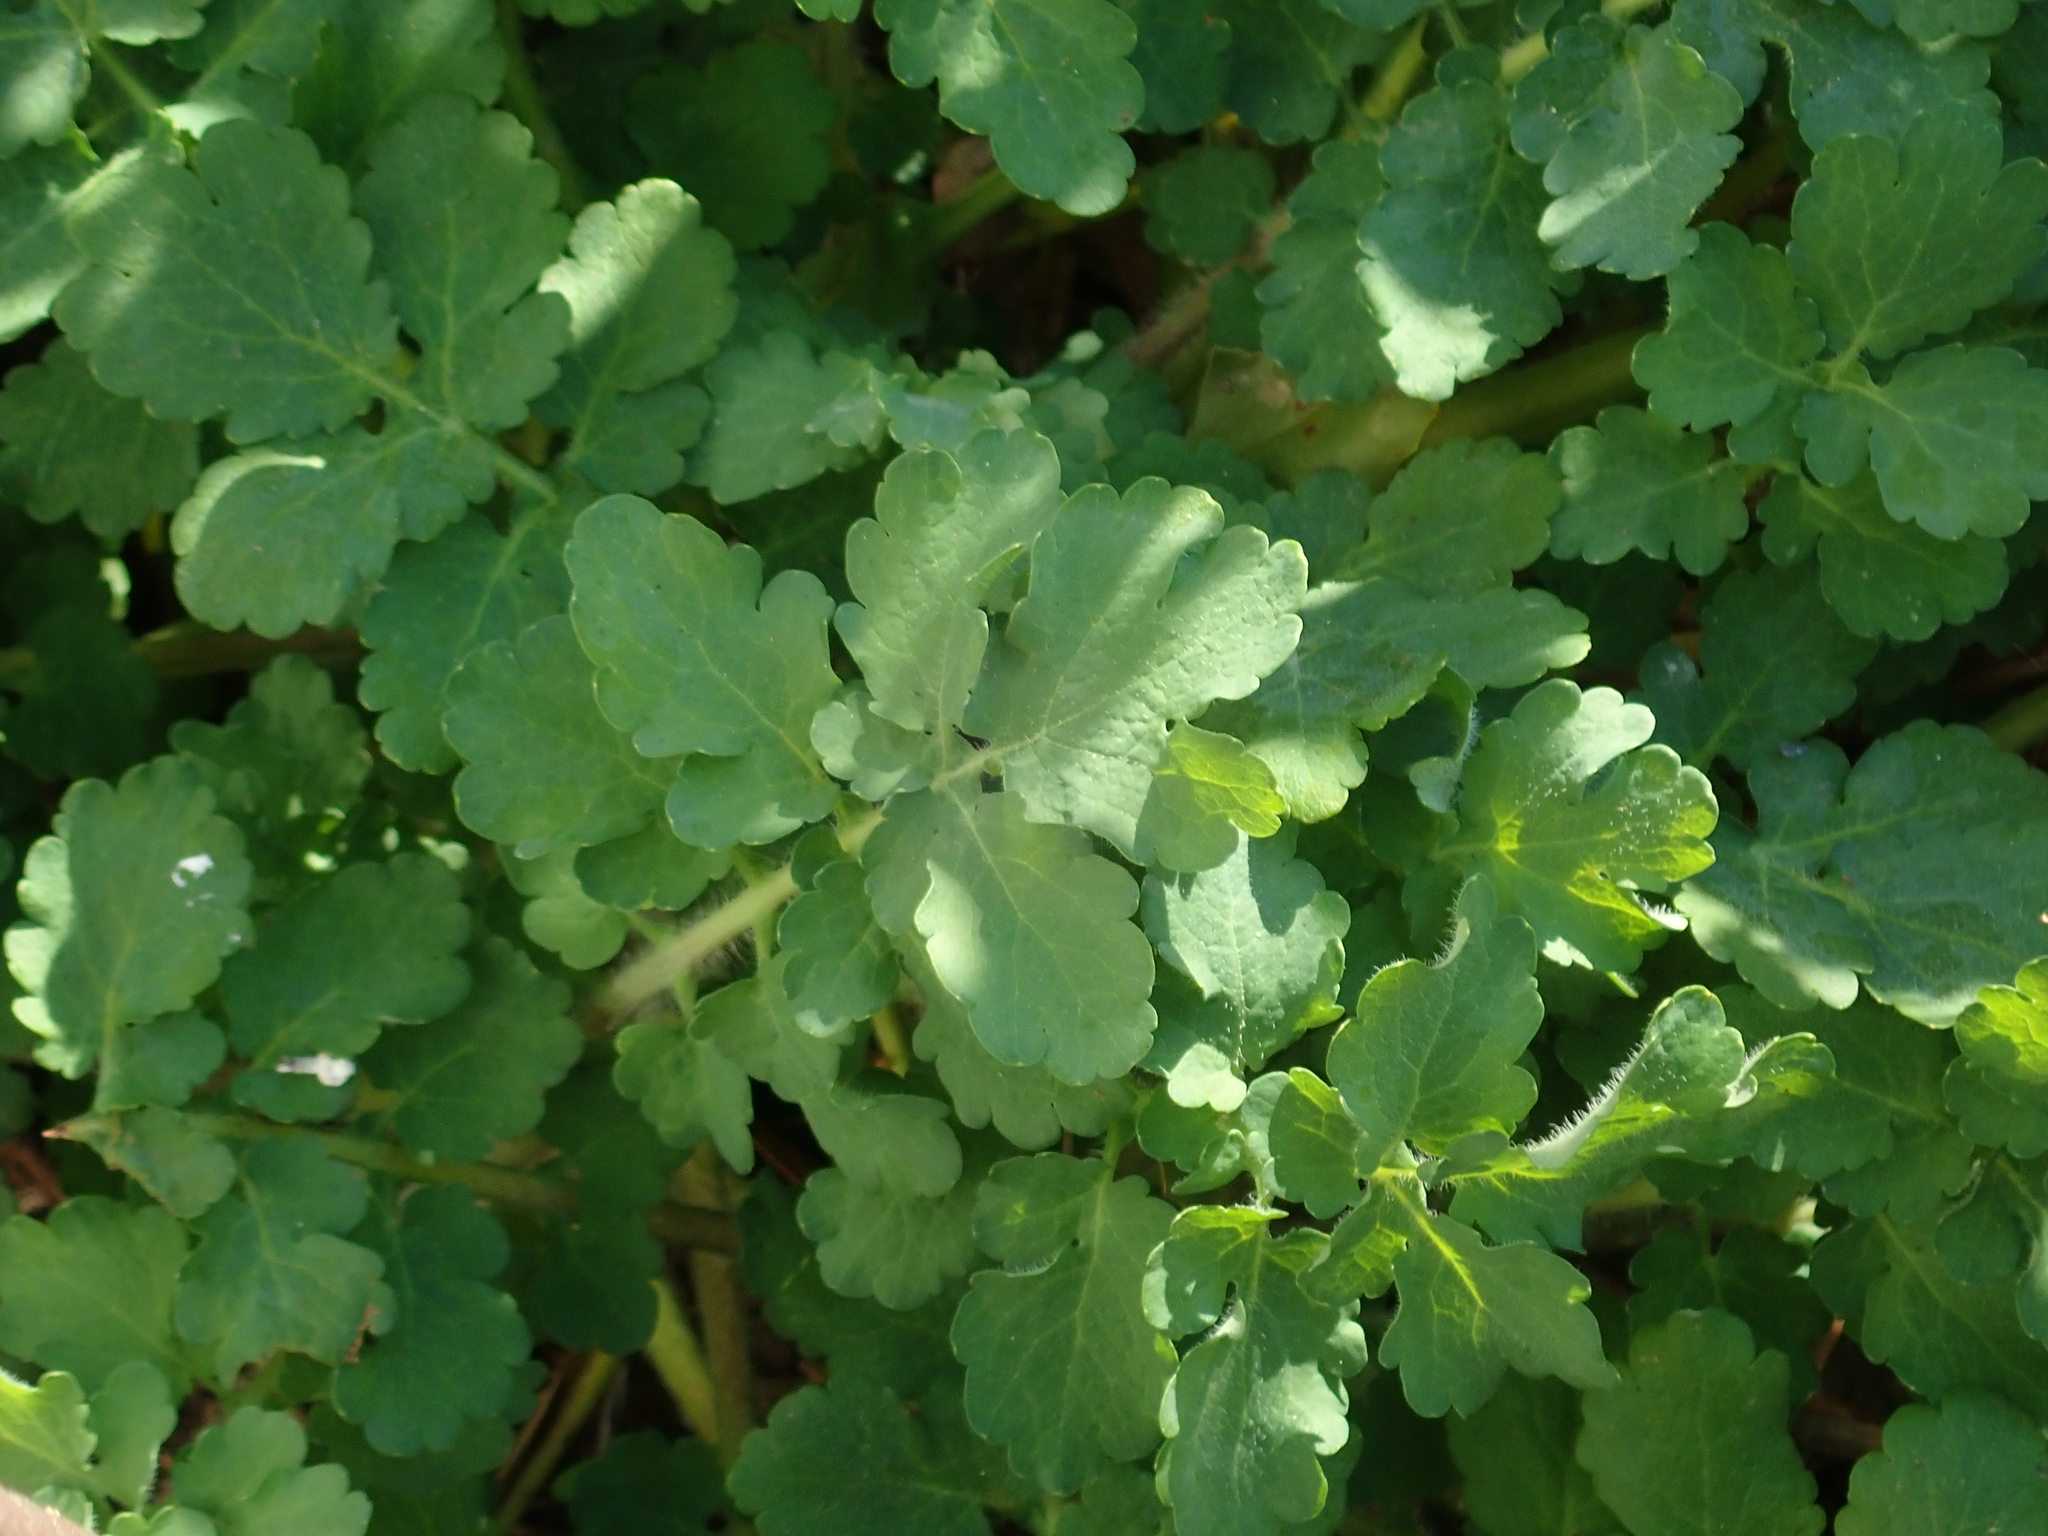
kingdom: Plantae
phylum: Tracheophyta
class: Magnoliopsida
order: Ranunculales
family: Papaveraceae
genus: Chelidonium
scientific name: Chelidonium majus
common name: Greater celandine
